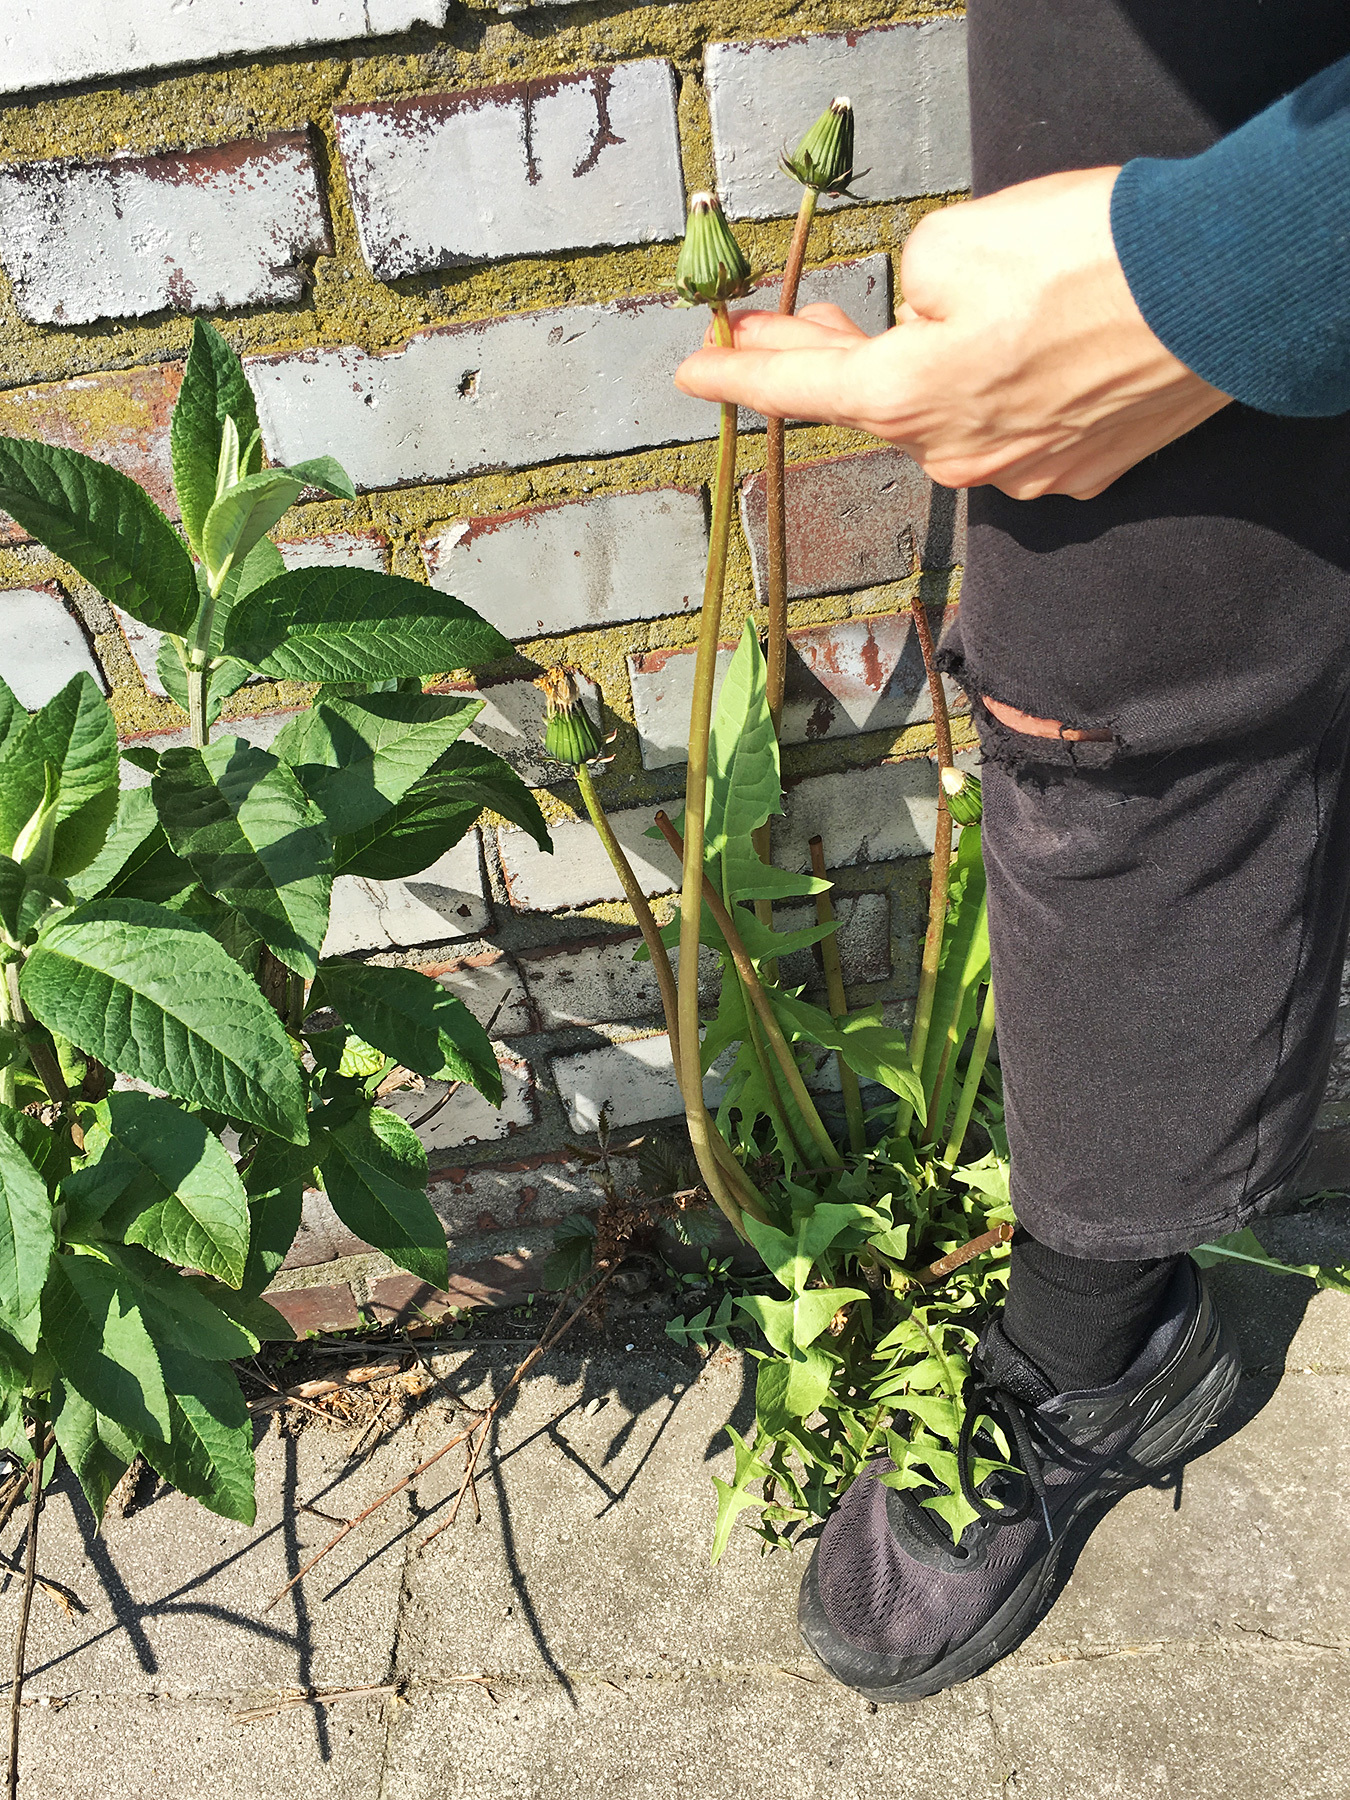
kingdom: Plantae
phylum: Tracheophyta
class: Magnoliopsida
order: Asterales
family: Asteraceae
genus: Taraxacum
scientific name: Taraxacum officinale
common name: Common dandelion
